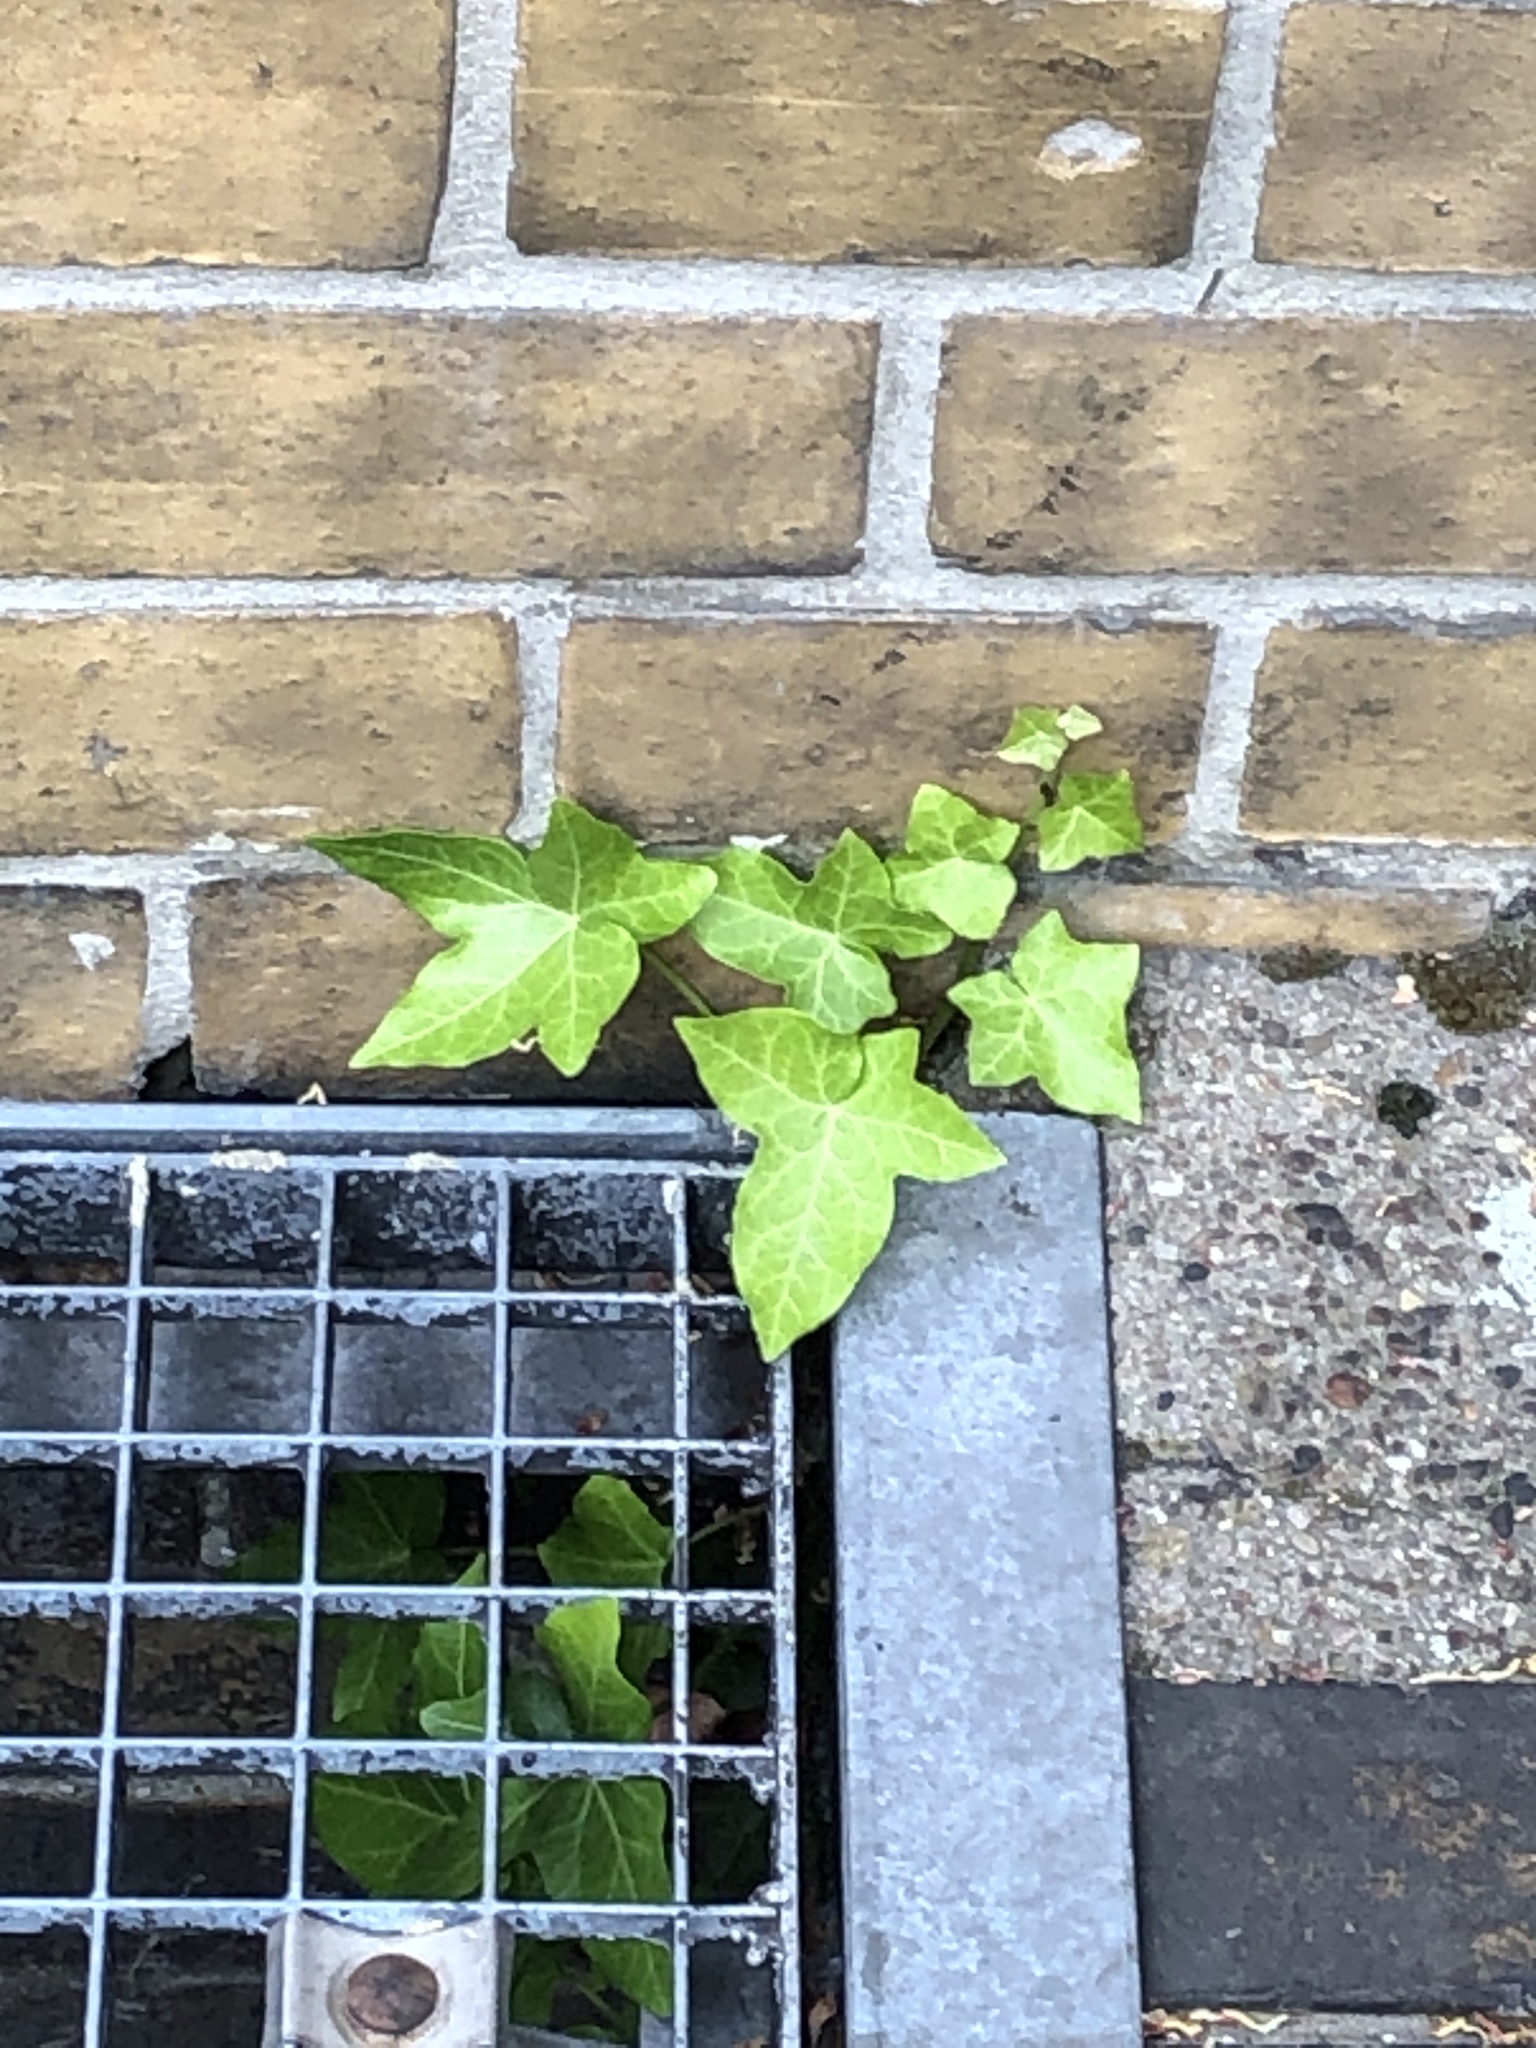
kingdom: Plantae
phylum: Tracheophyta
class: Magnoliopsida
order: Apiales
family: Araliaceae
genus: Hedera
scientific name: Hedera helix
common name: Ivy
